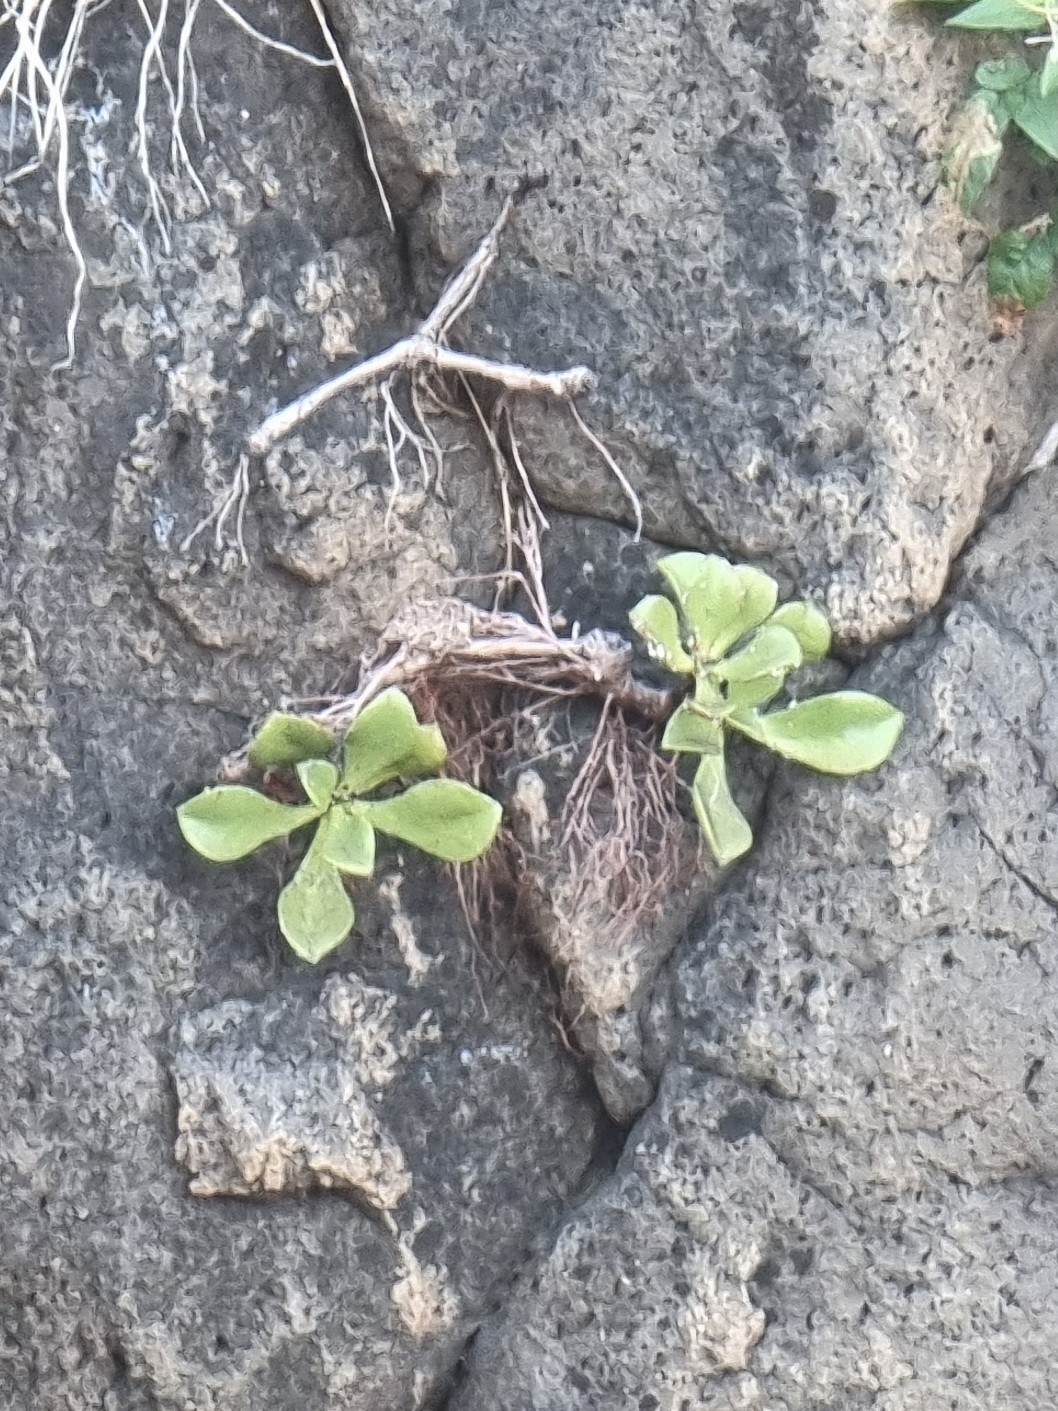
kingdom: Plantae
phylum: Tracheophyta
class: Magnoliopsida
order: Saxifragales
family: Crassulaceae
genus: Aeonium
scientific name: Aeonium glutinosum
